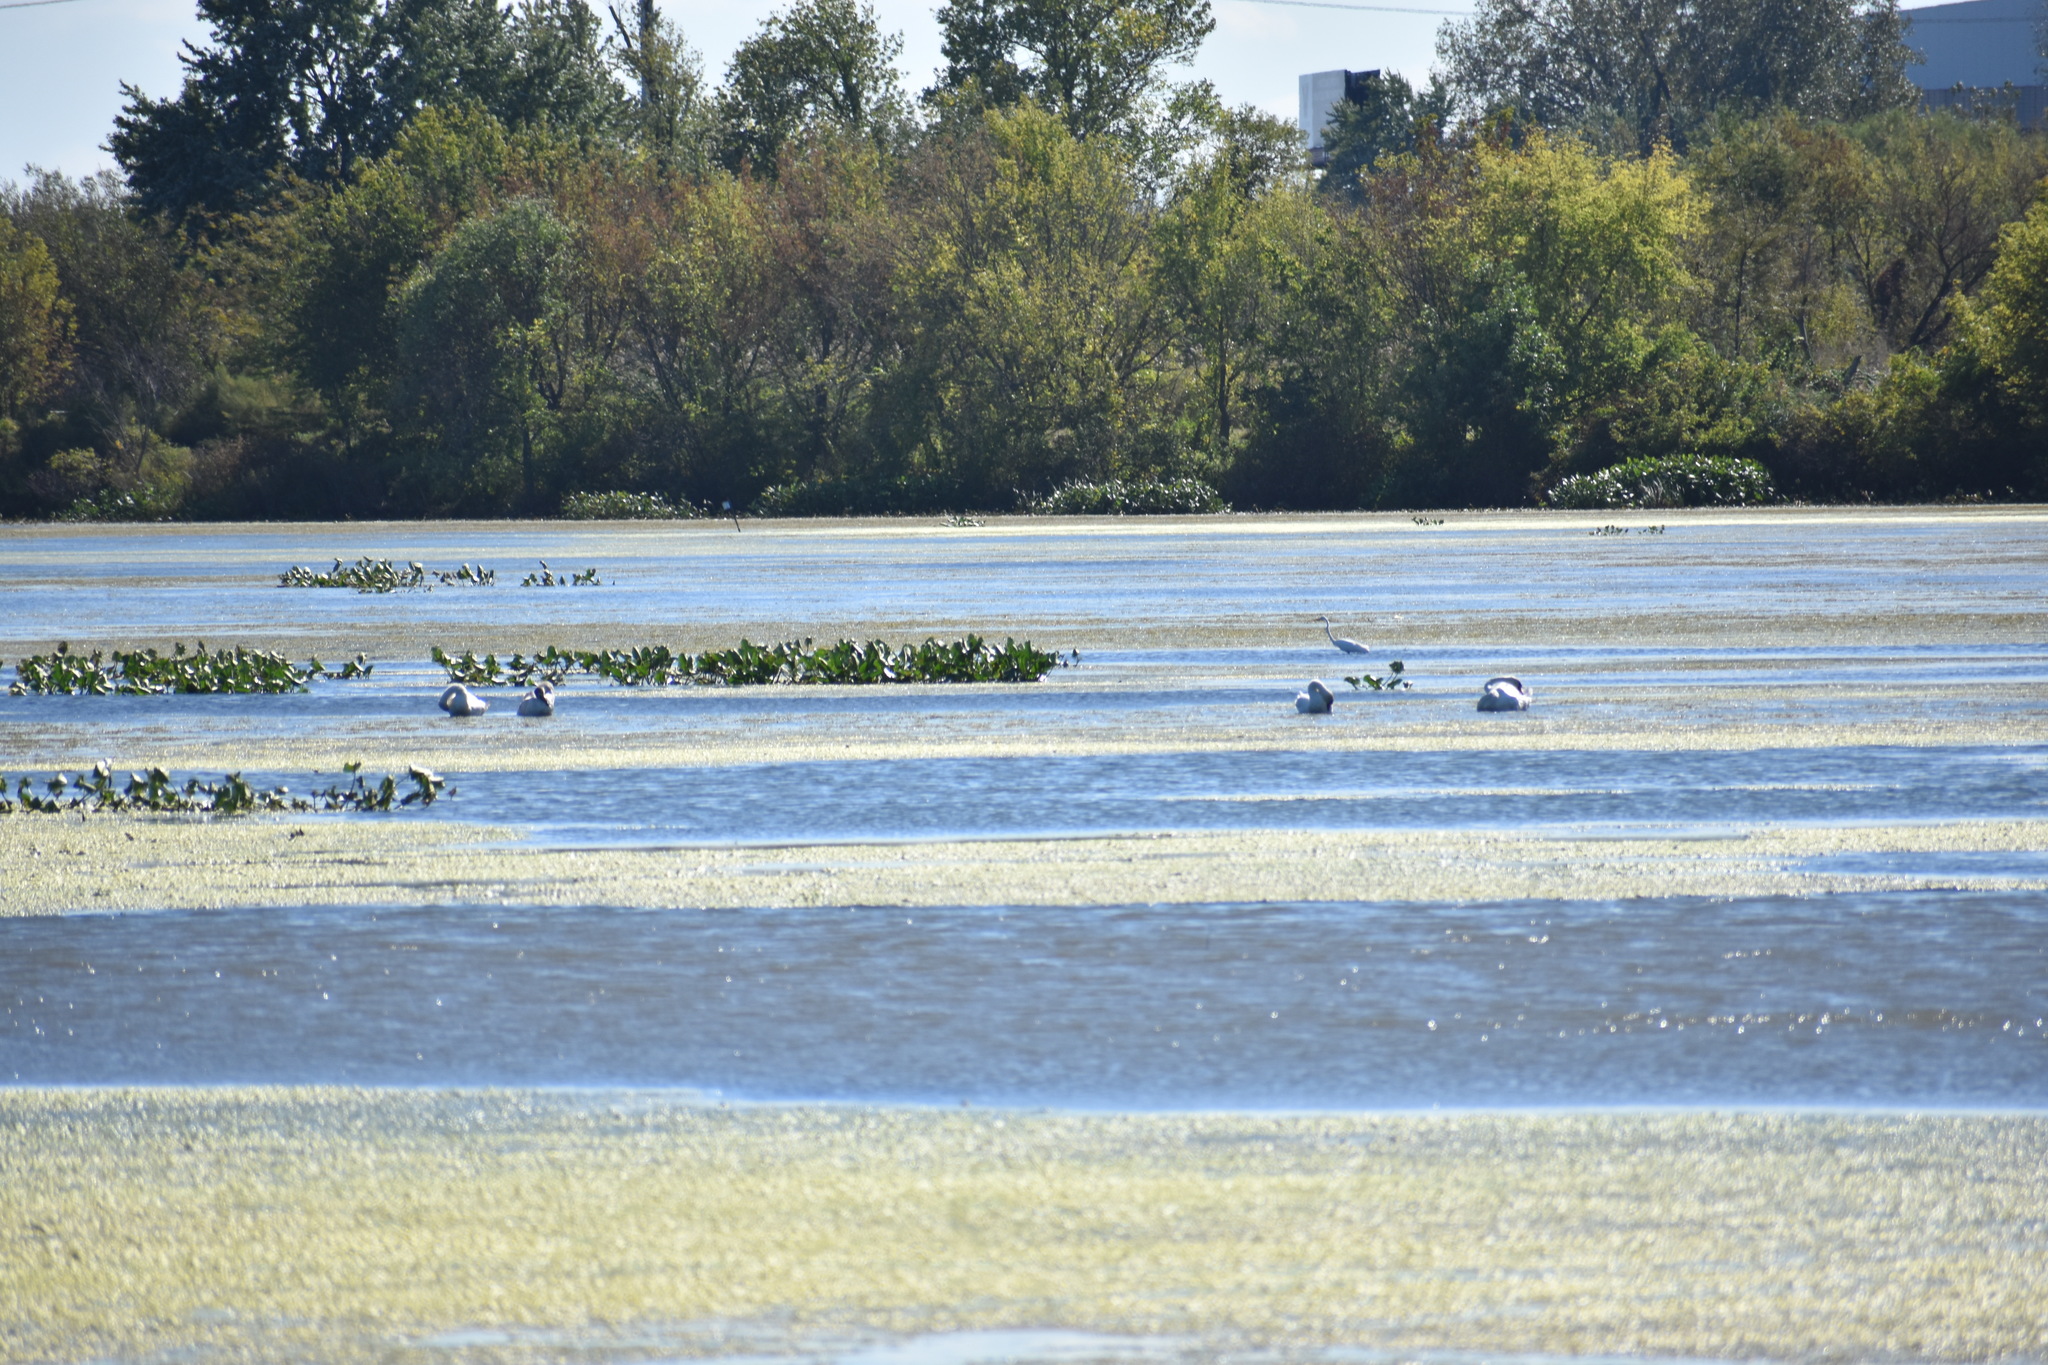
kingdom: Animalia
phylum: Chordata
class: Aves
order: Pelecaniformes
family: Ardeidae
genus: Ardea
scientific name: Ardea alba
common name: Great egret
